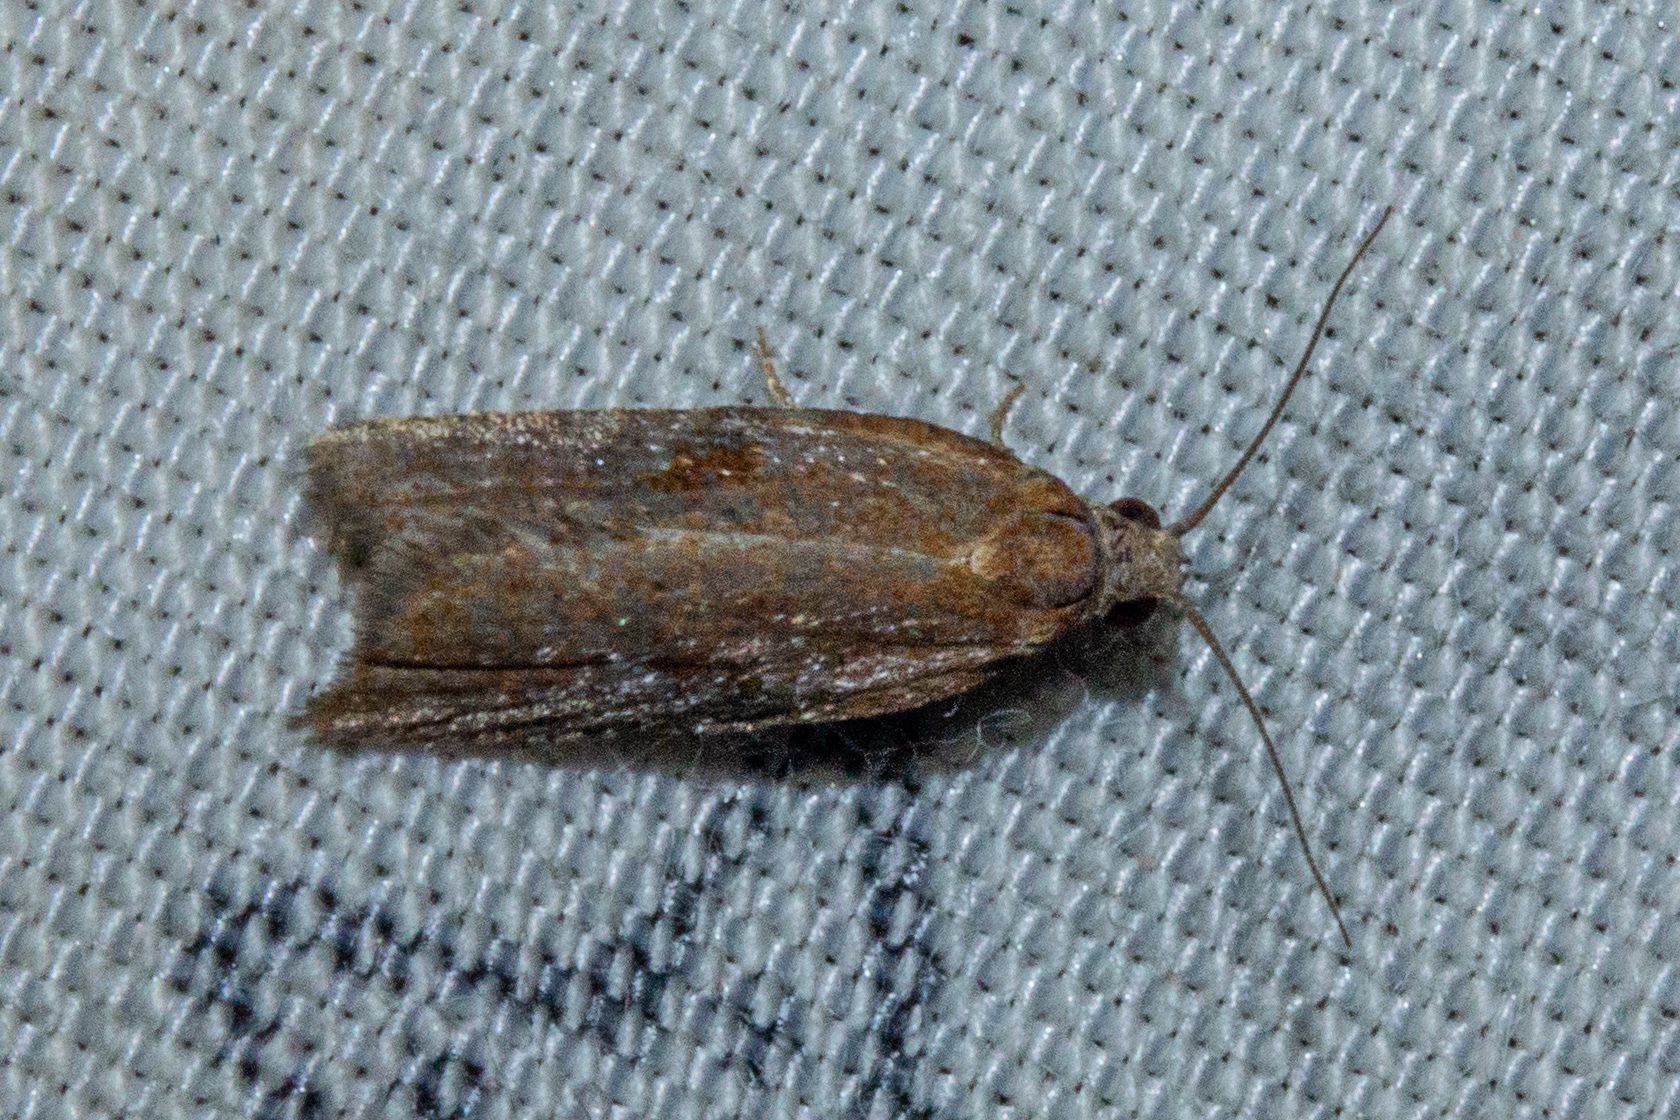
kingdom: Animalia
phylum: Arthropoda
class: Insecta
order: Lepidoptera
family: Tortricidae
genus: Capua
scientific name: Capua semiferana
